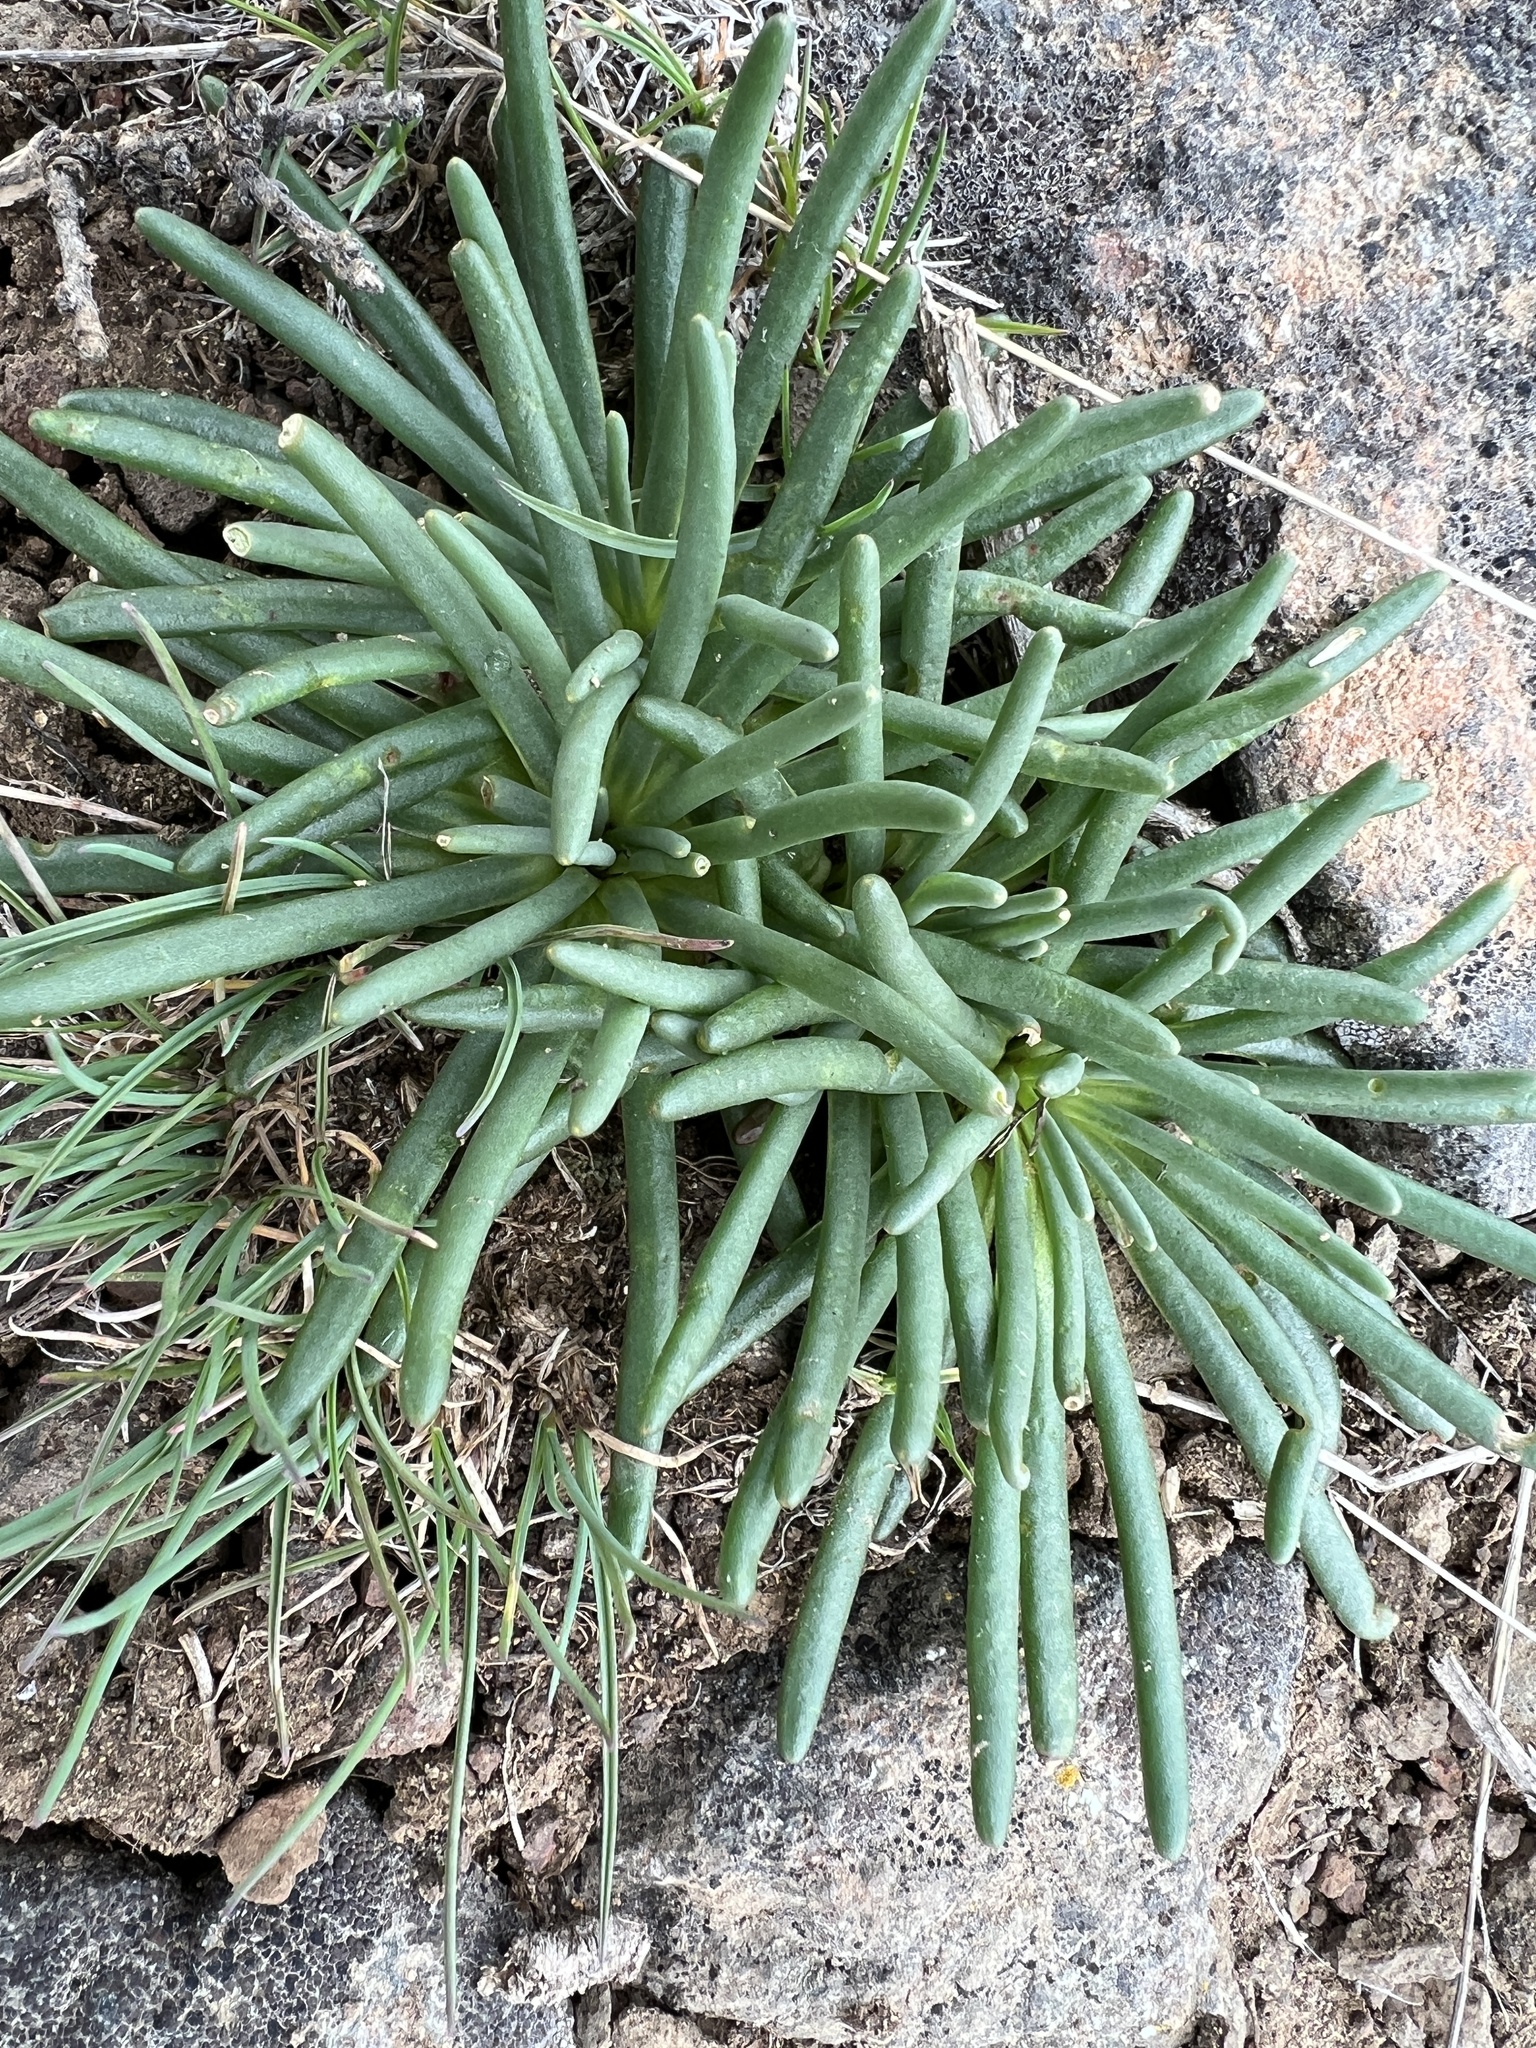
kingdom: Plantae
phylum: Tracheophyta
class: Magnoliopsida
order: Caryophyllales
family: Montiaceae
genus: Lewisia
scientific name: Lewisia rediviva
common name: Bitter-root
